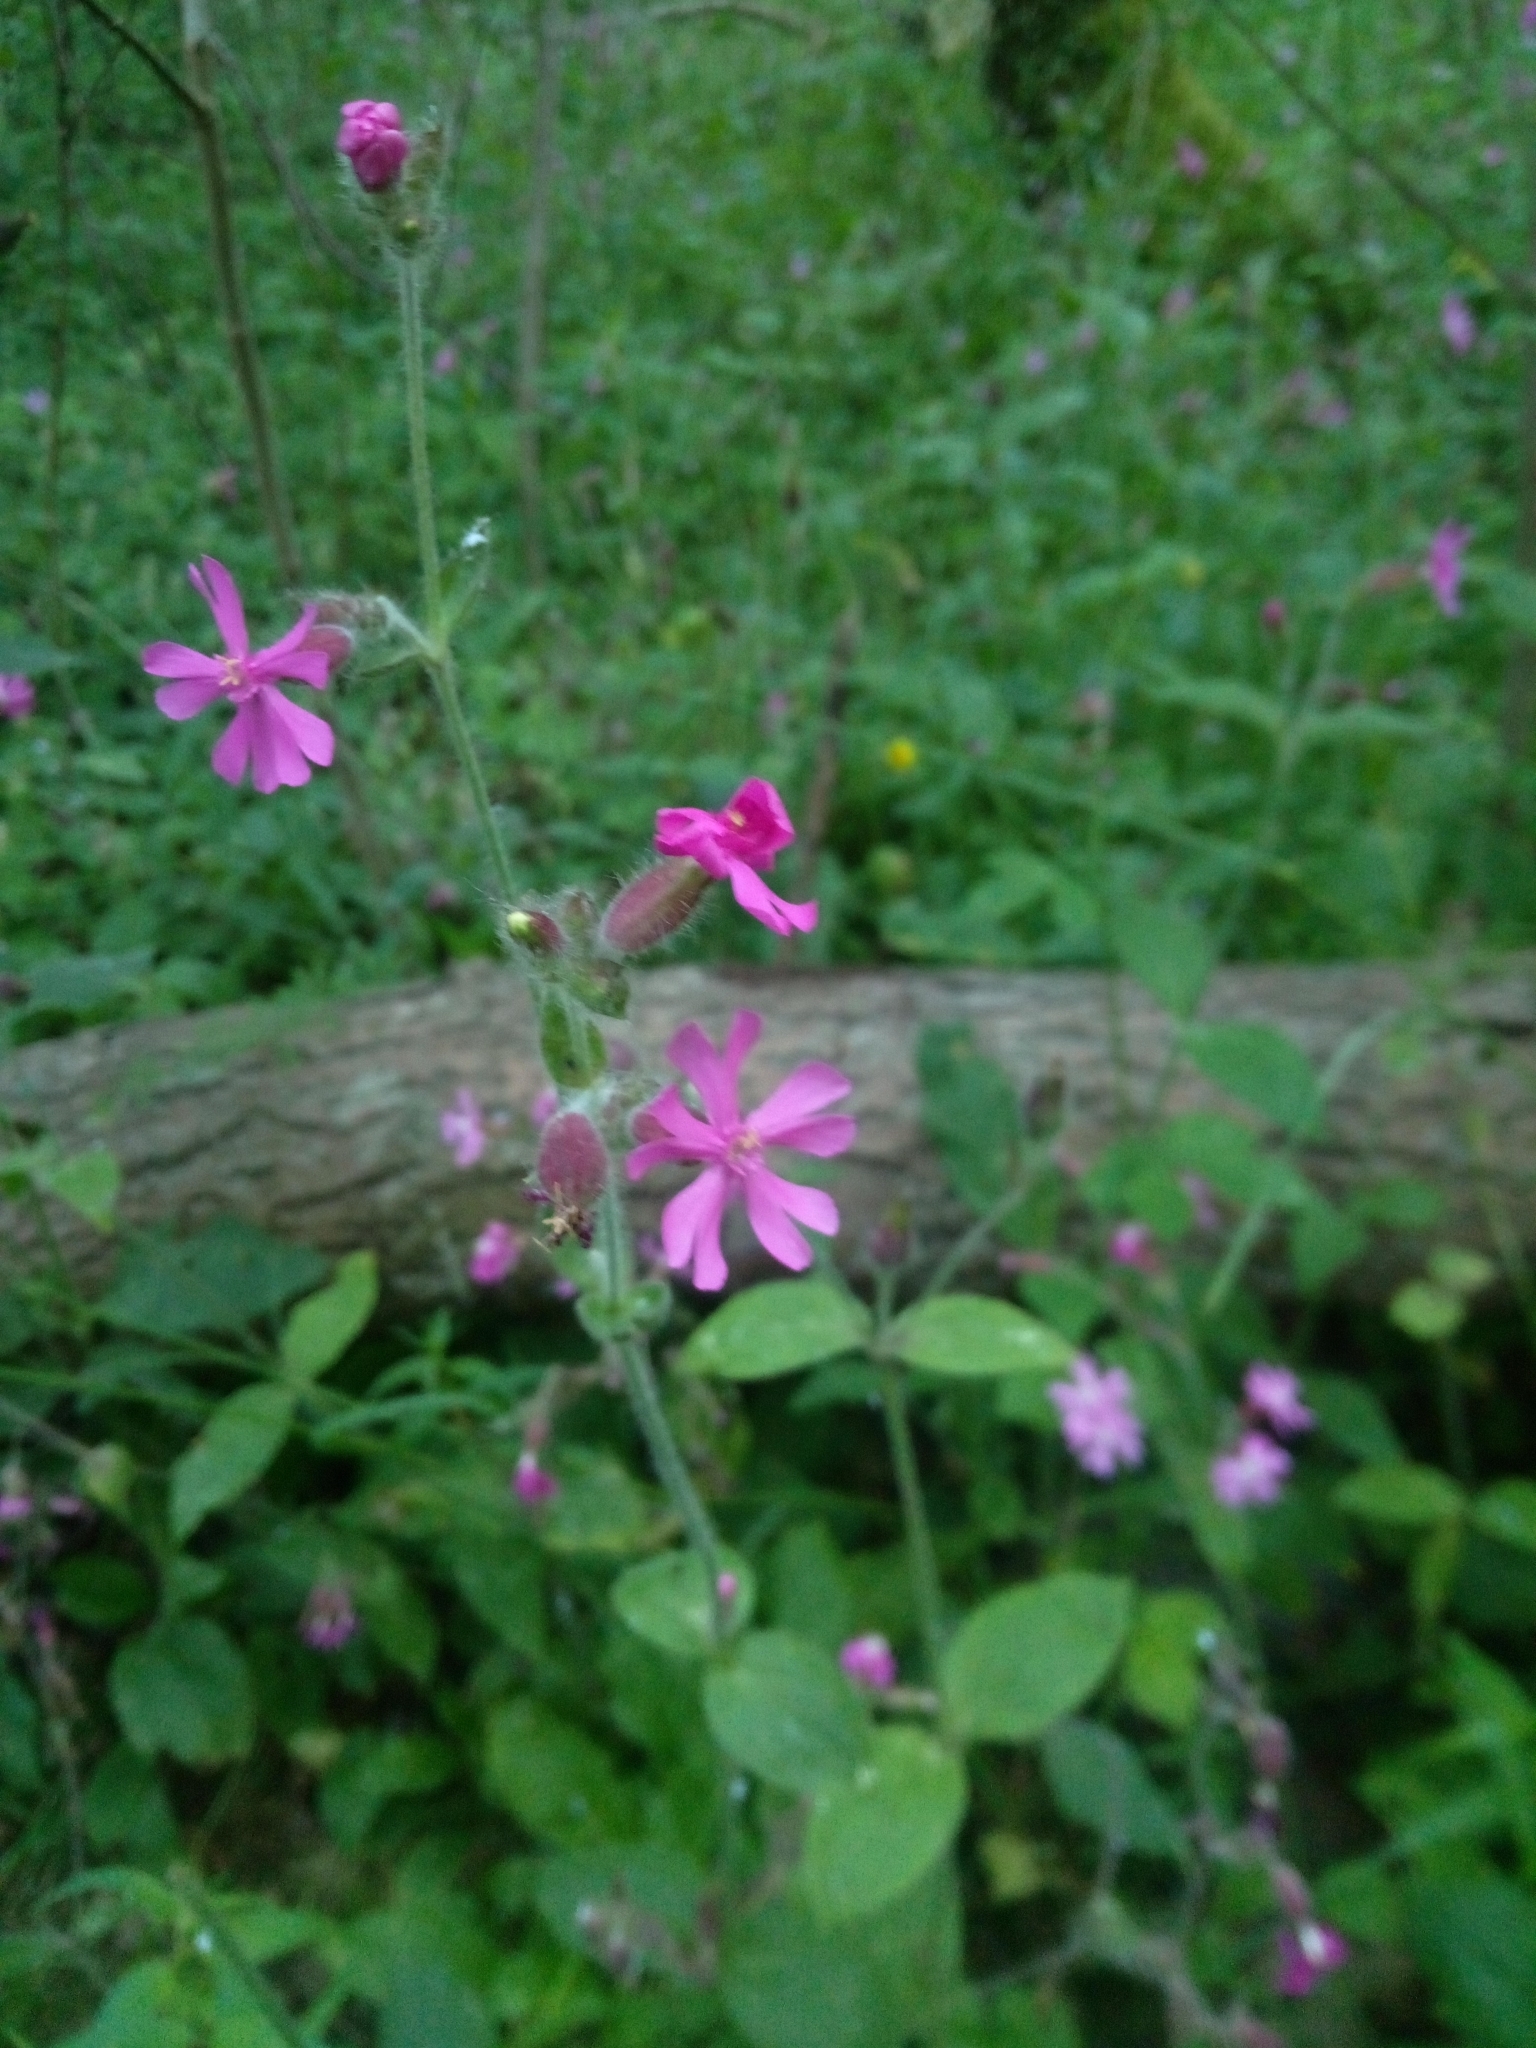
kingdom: Plantae
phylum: Tracheophyta
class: Magnoliopsida
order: Caryophyllales
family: Caryophyllaceae
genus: Silene
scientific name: Silene dioica
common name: Red campion
